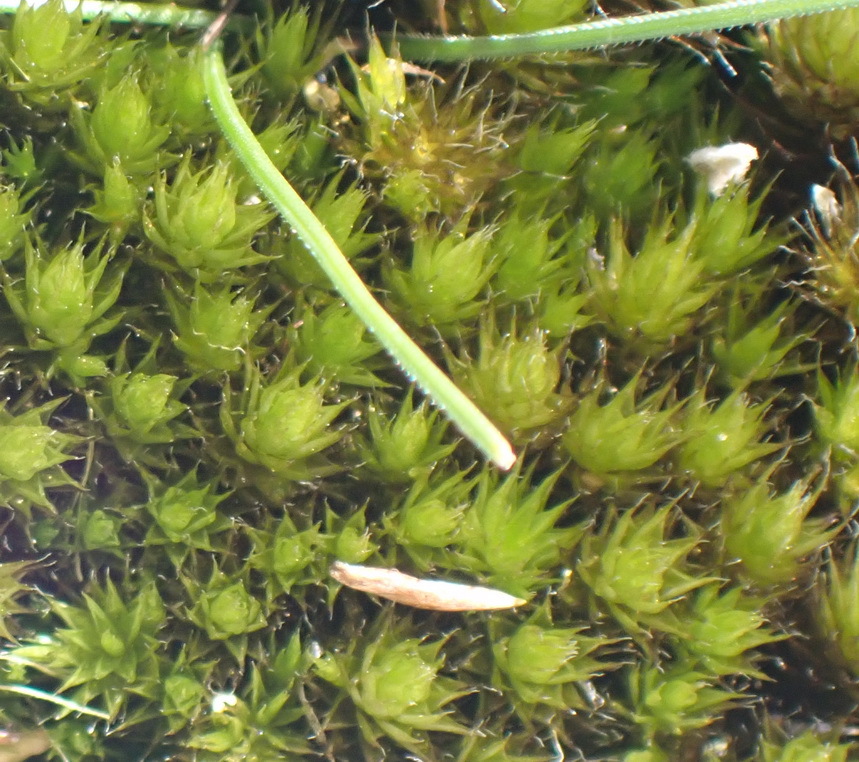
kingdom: Plantae
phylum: Bryophyta
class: Bryopsida
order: Dicranales
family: Leucobryaceae
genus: Campylopus
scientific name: Campylopus flaccidus
